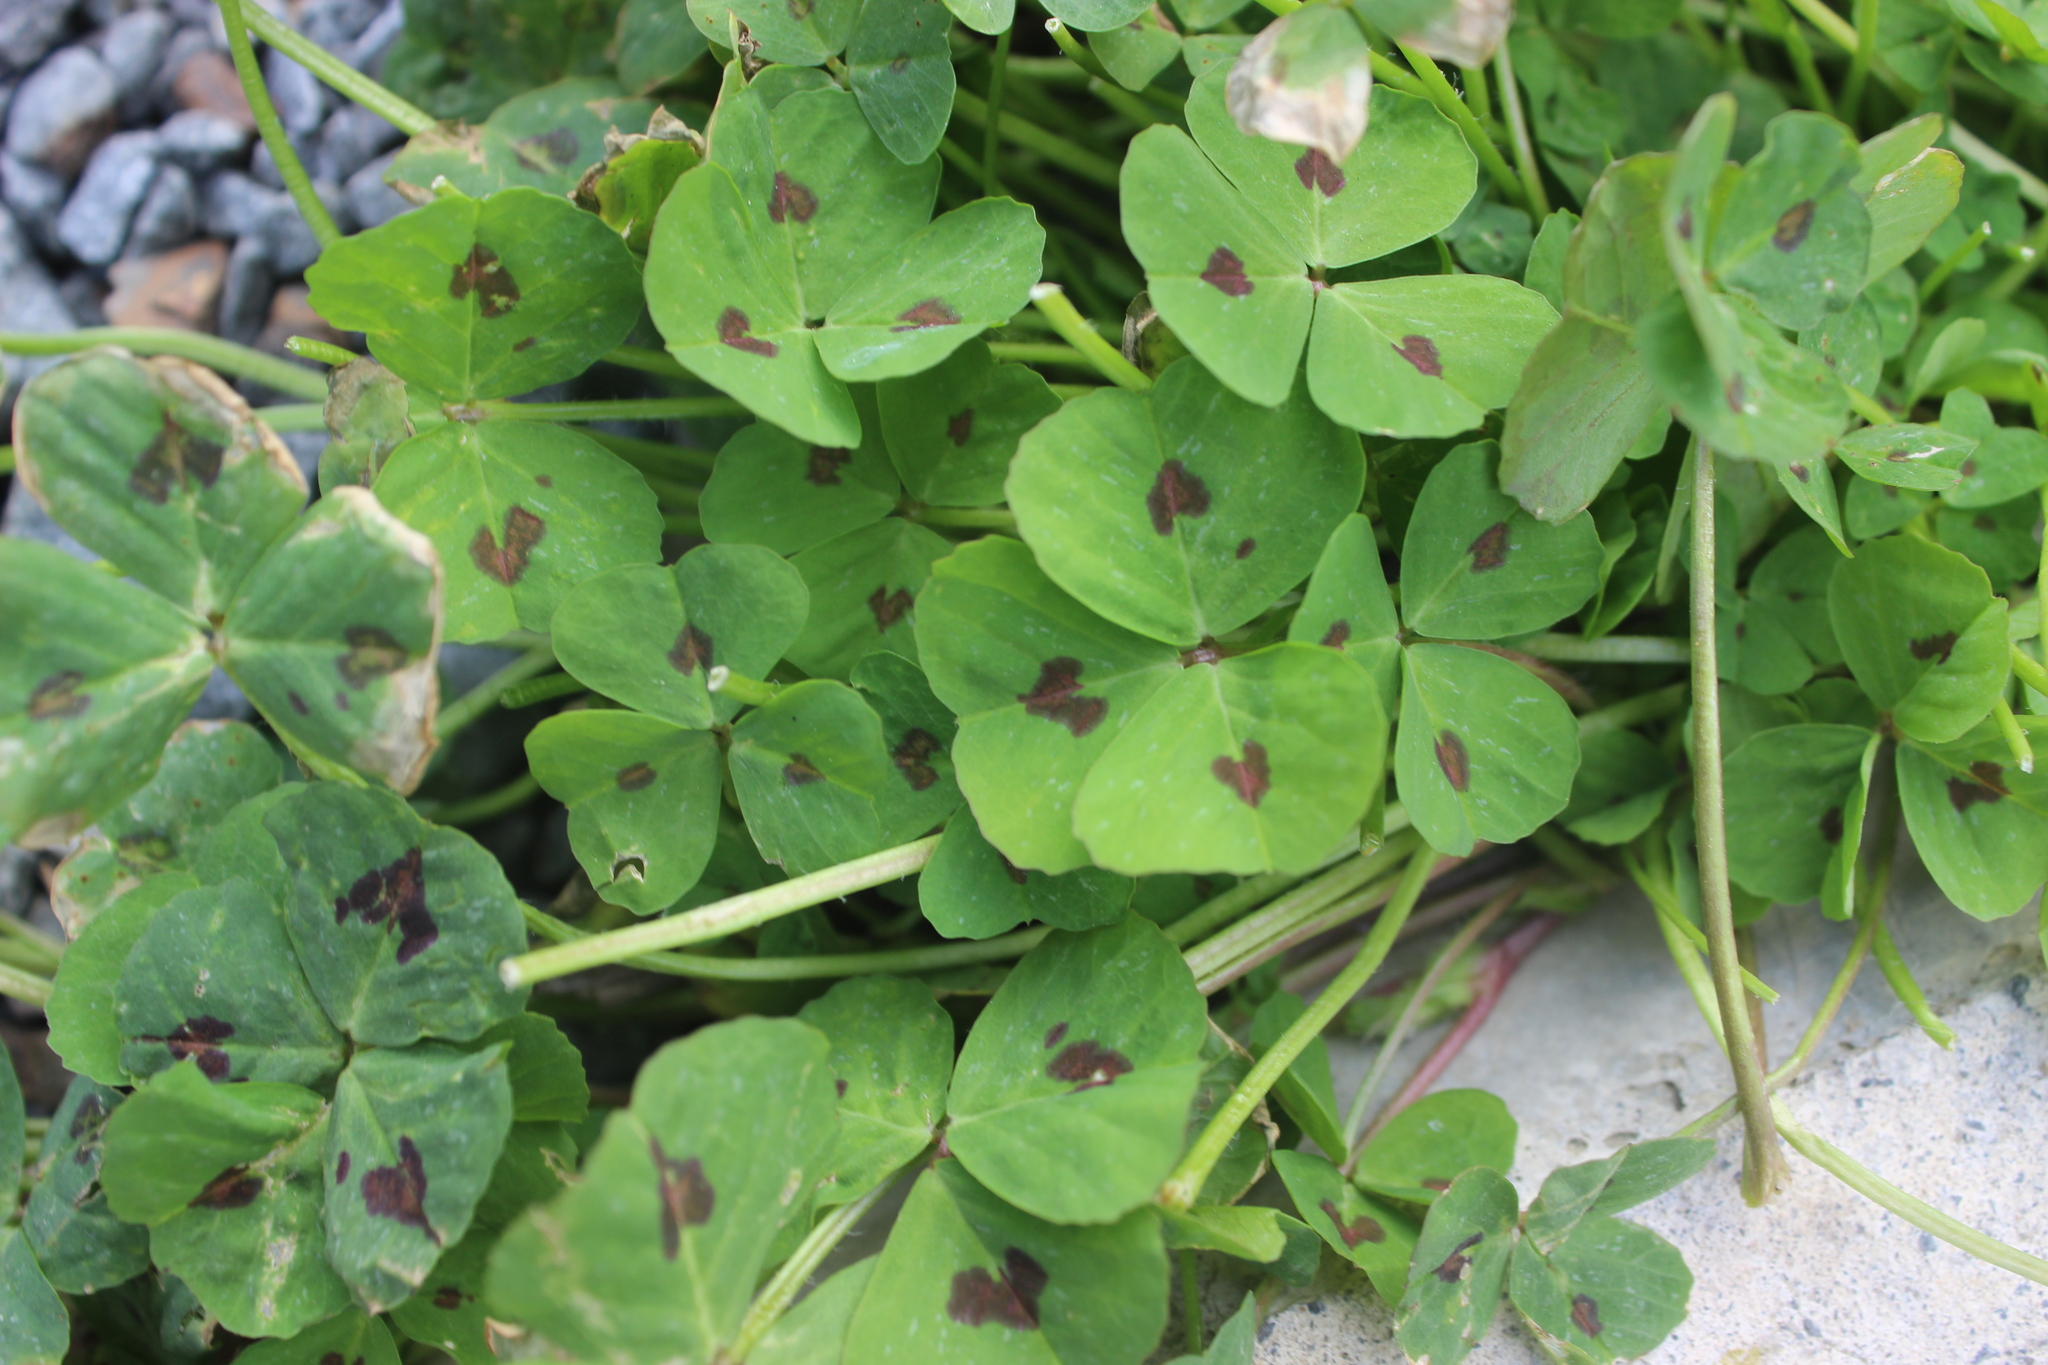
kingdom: Plantae
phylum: Tracheophyta
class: Magnoliopsida
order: Fabales
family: Fabaceae
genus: Medicago
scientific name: Medicago arabica
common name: Spotted medick
